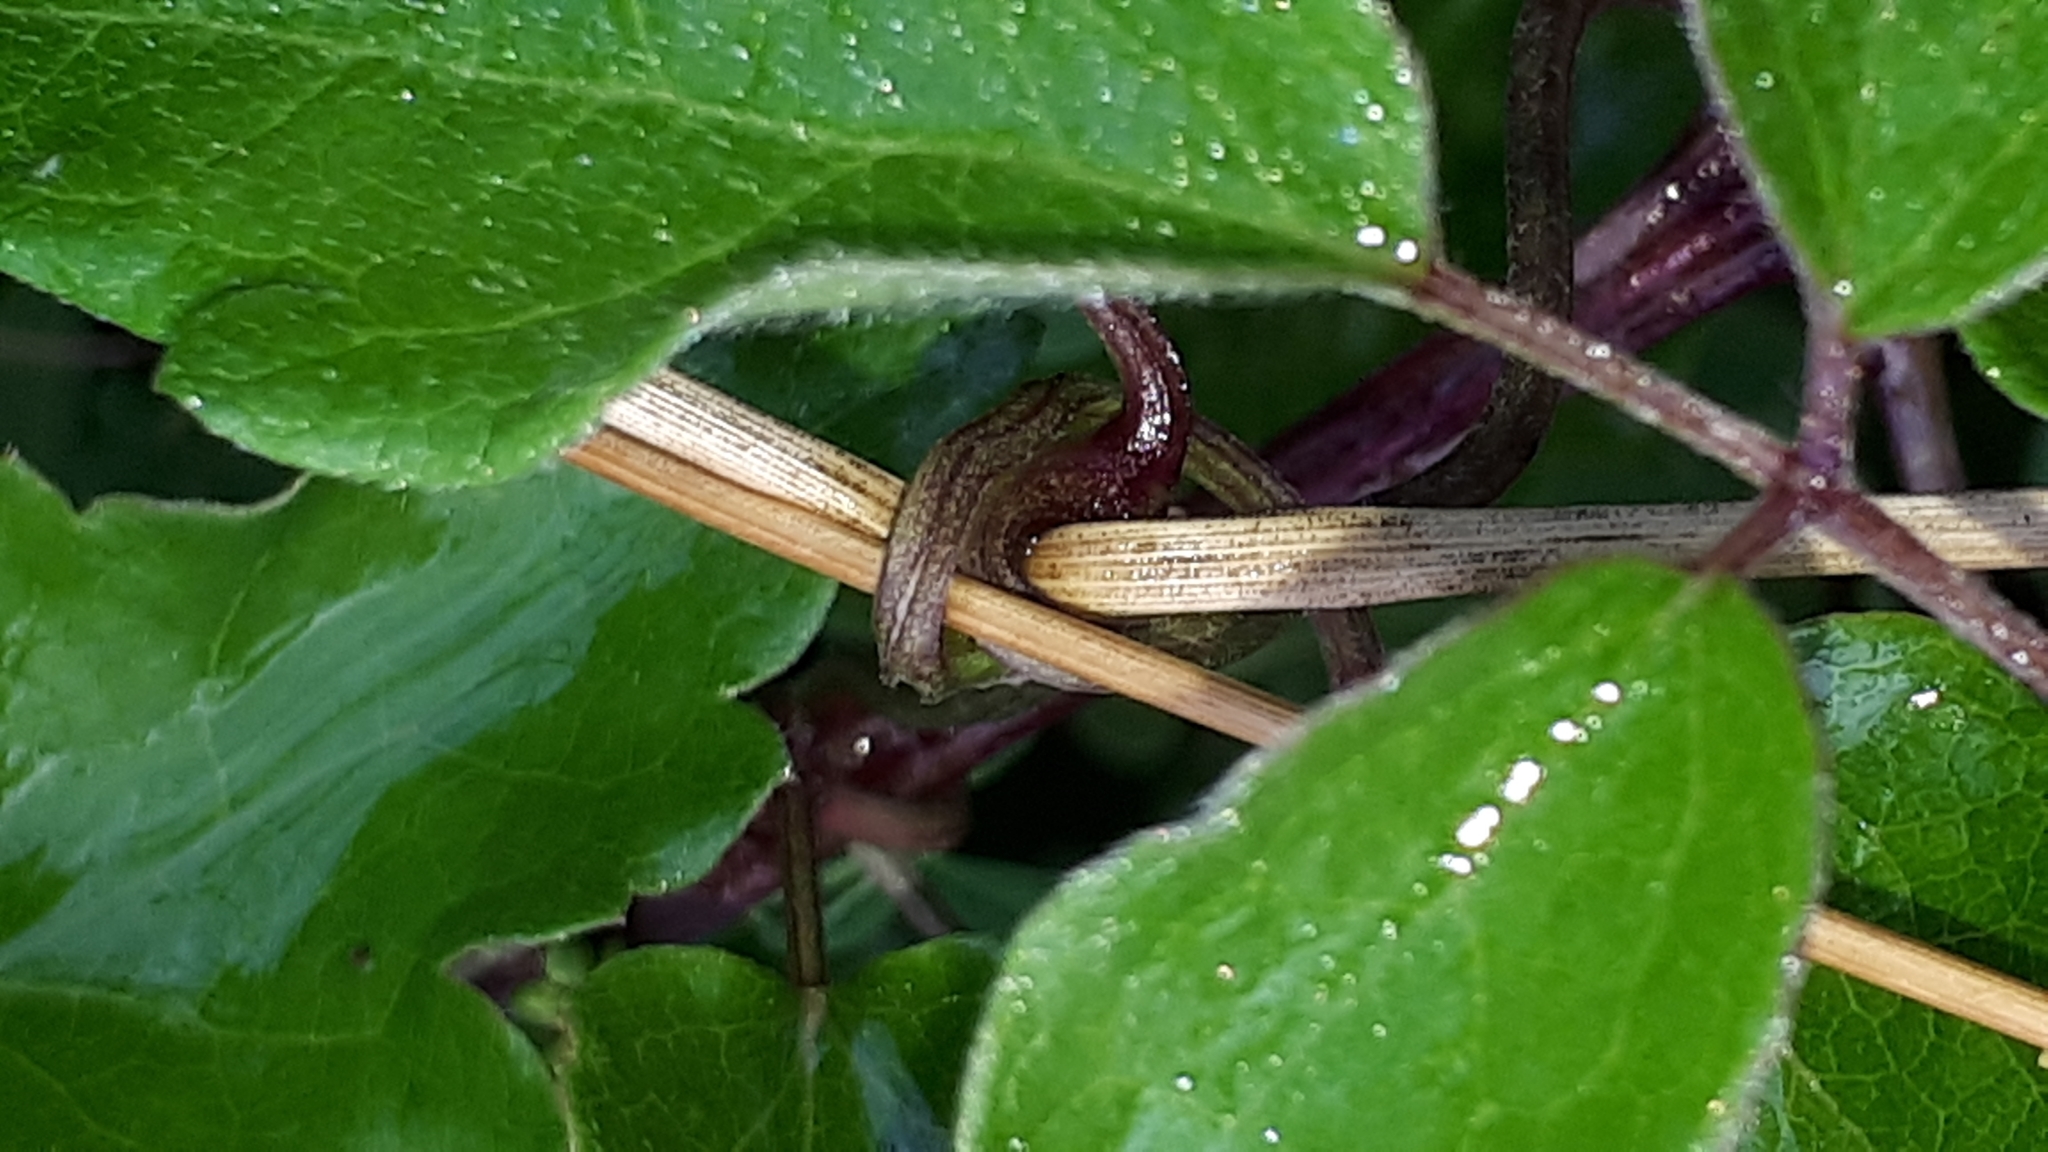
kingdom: Plantae
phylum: Tracheophyta
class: Magnoliopsida
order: Ranunculales
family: Ranunculaceae
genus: Clematis
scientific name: Clematis vitalba
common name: Evergreen clematis
